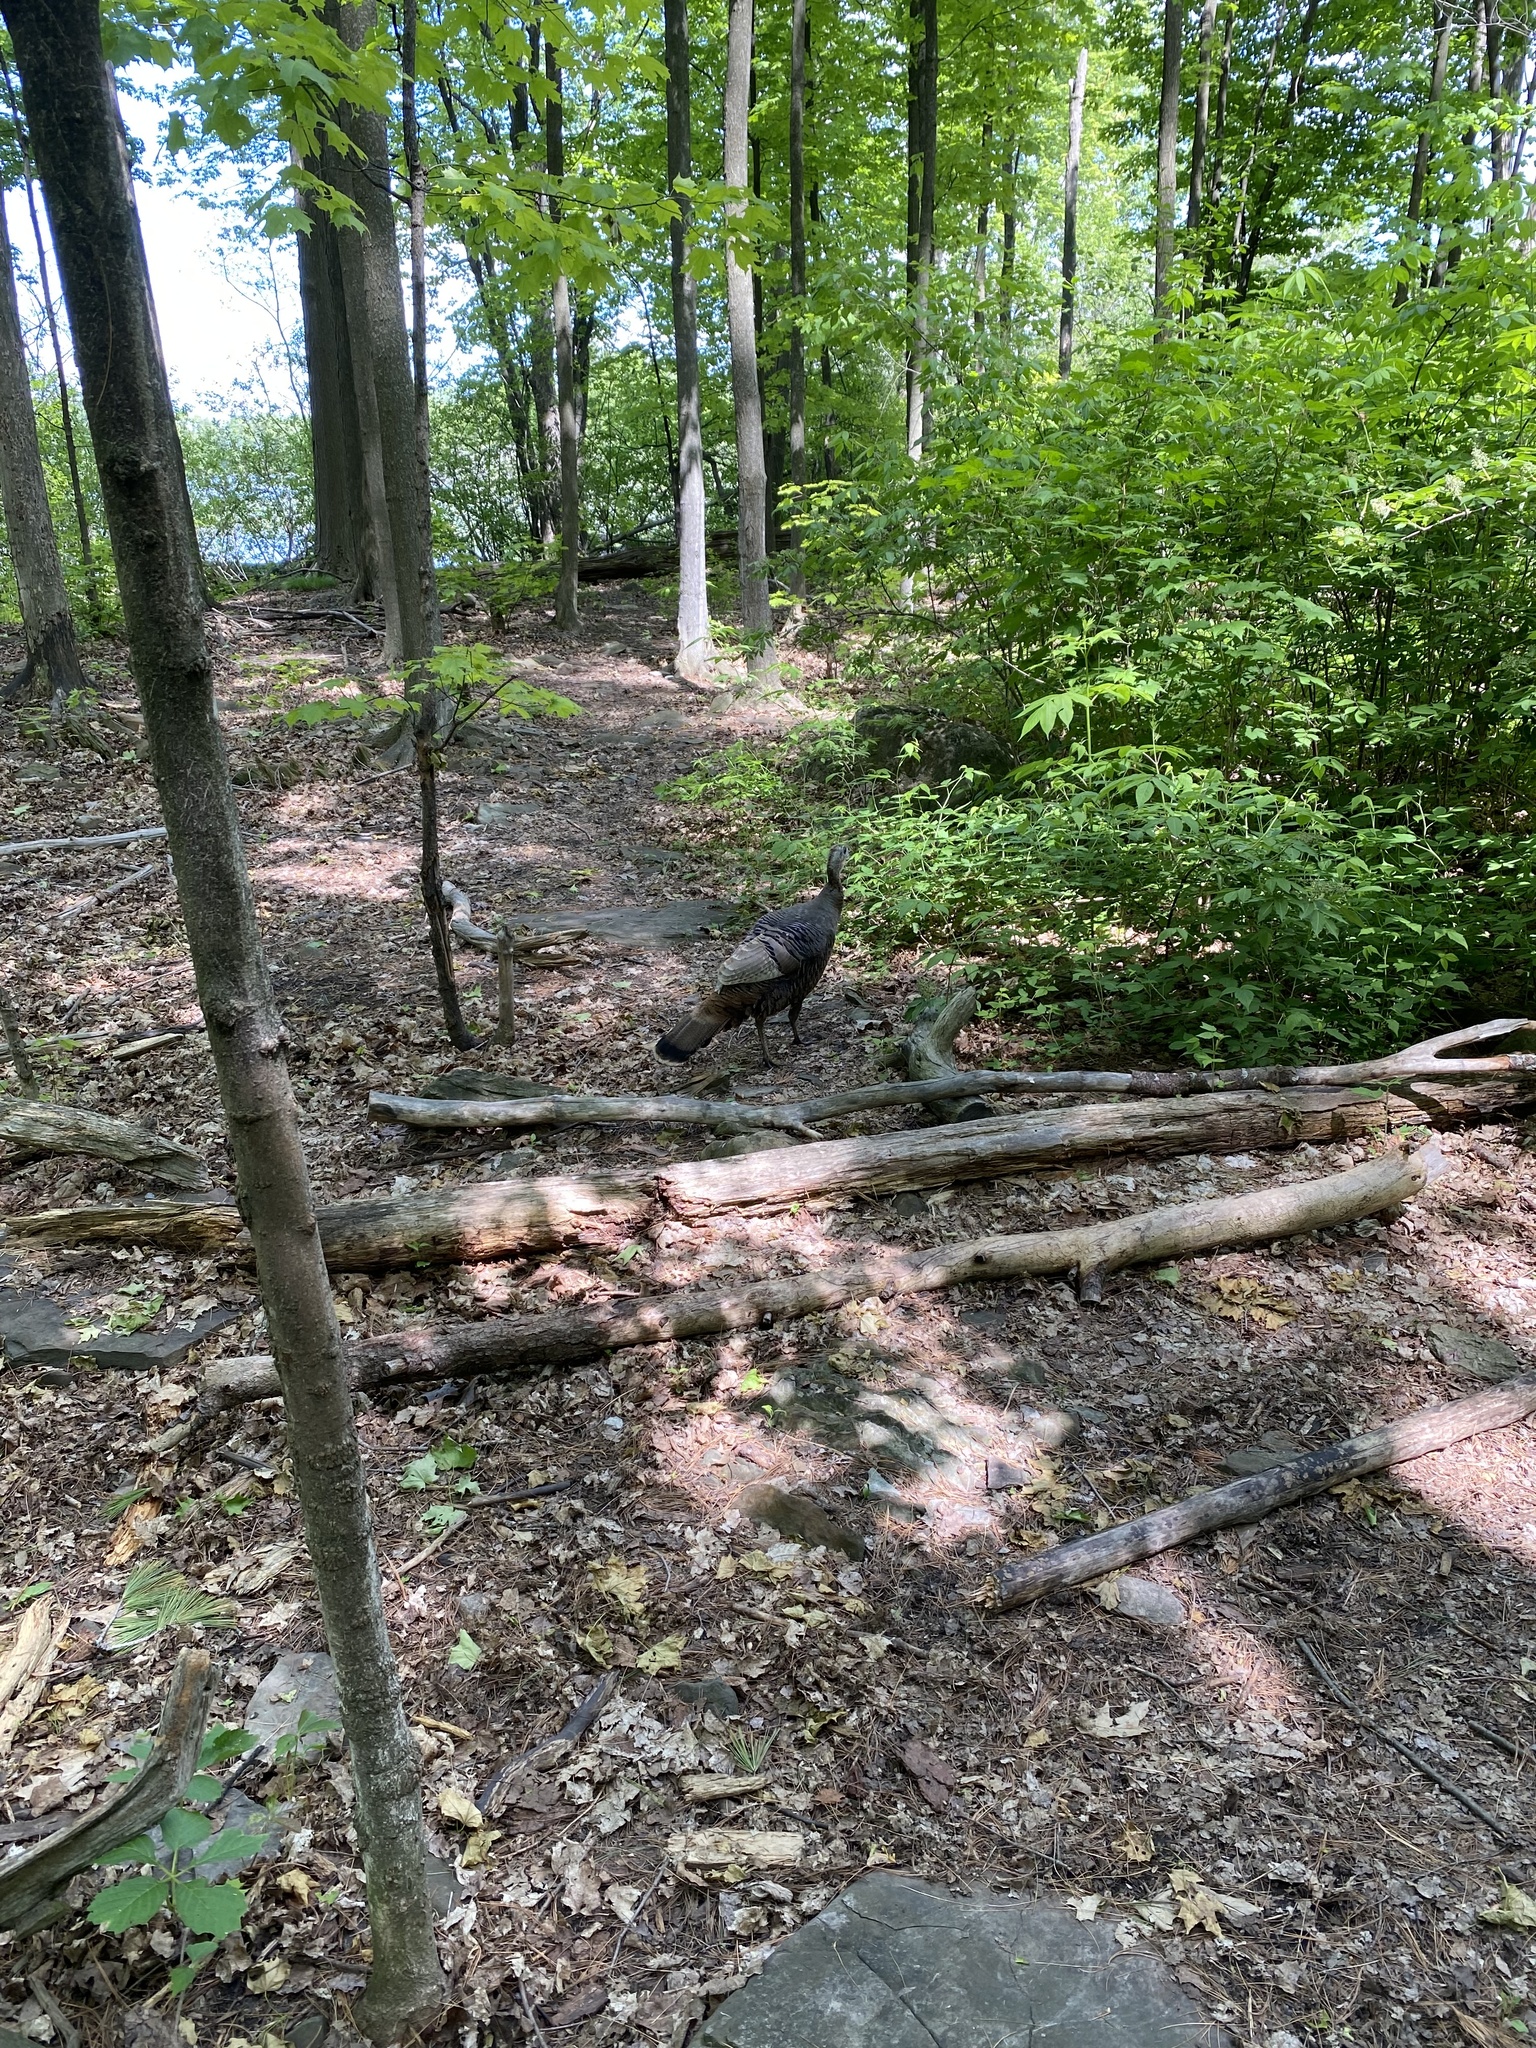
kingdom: Animalia
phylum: Chordata
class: Aves
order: Galliformes
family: Phasianidae
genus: Meleagris
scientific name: Meleagris gallopavo
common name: Wild turkey
